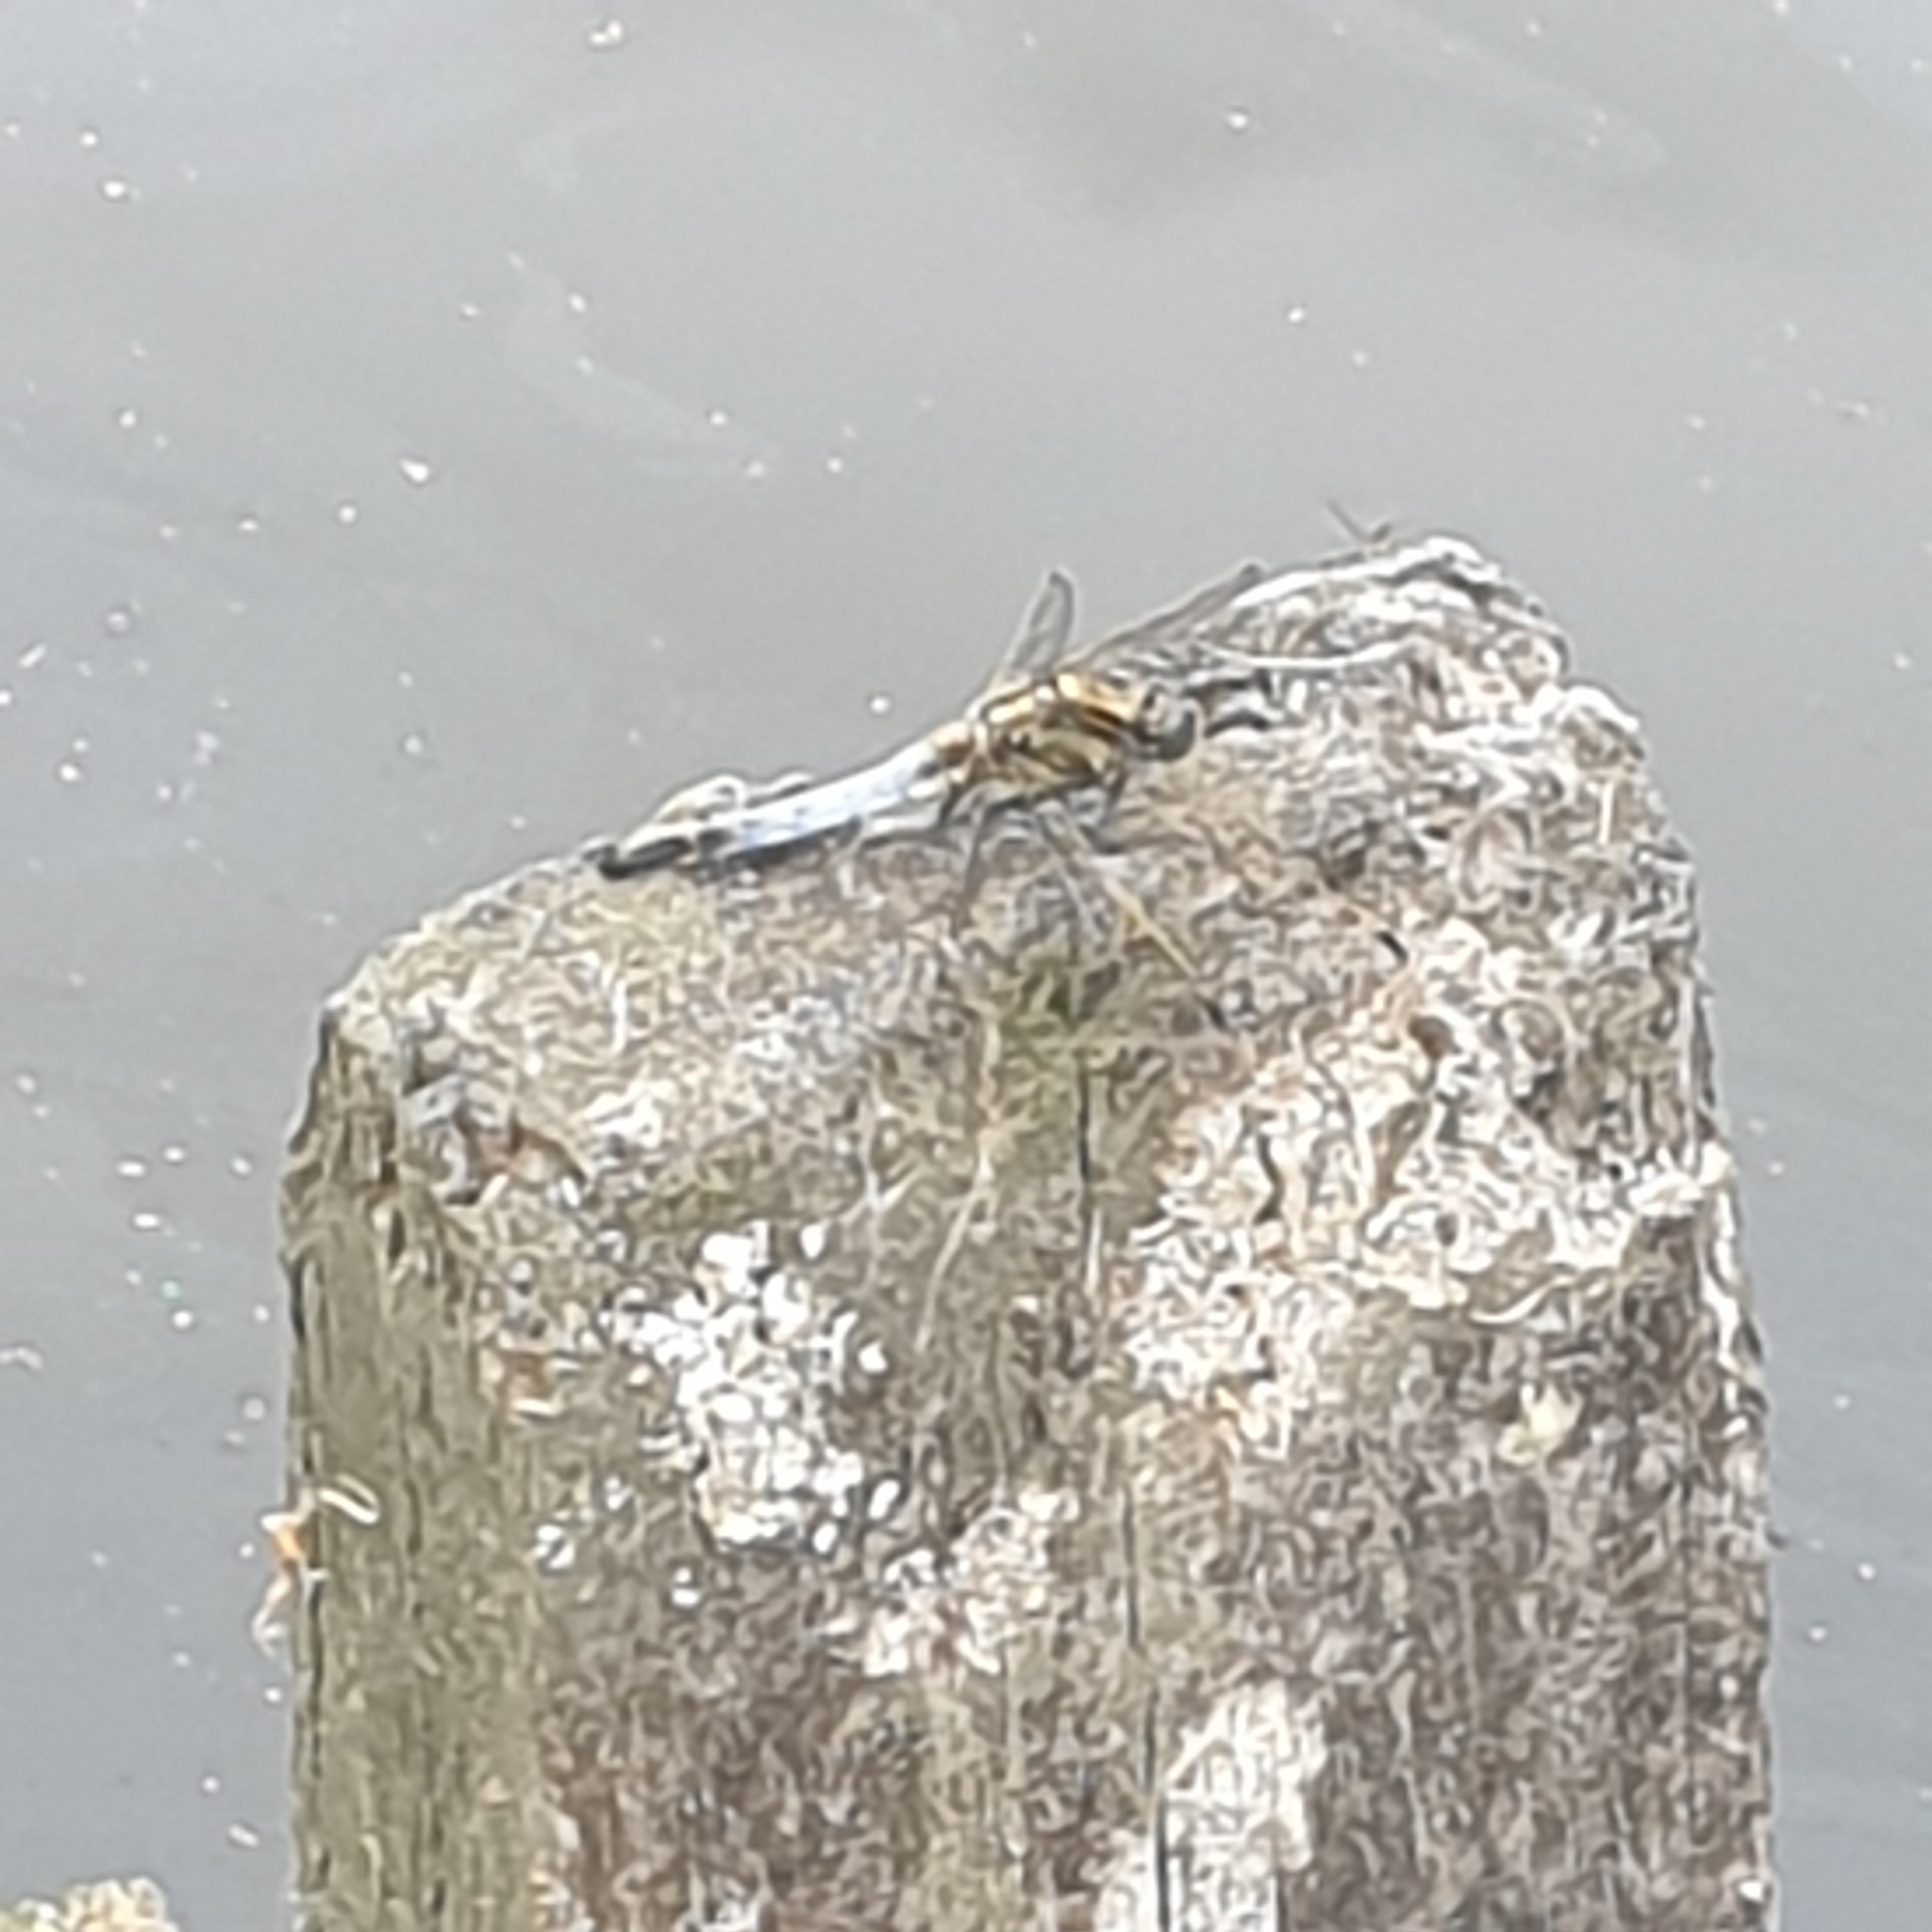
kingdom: Animalia
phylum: Arthropoda
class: Insecta
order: Odonata
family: Libellulidae
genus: Orthetrum
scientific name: Orthetrum cancellatum
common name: Black-tailed skimmer
